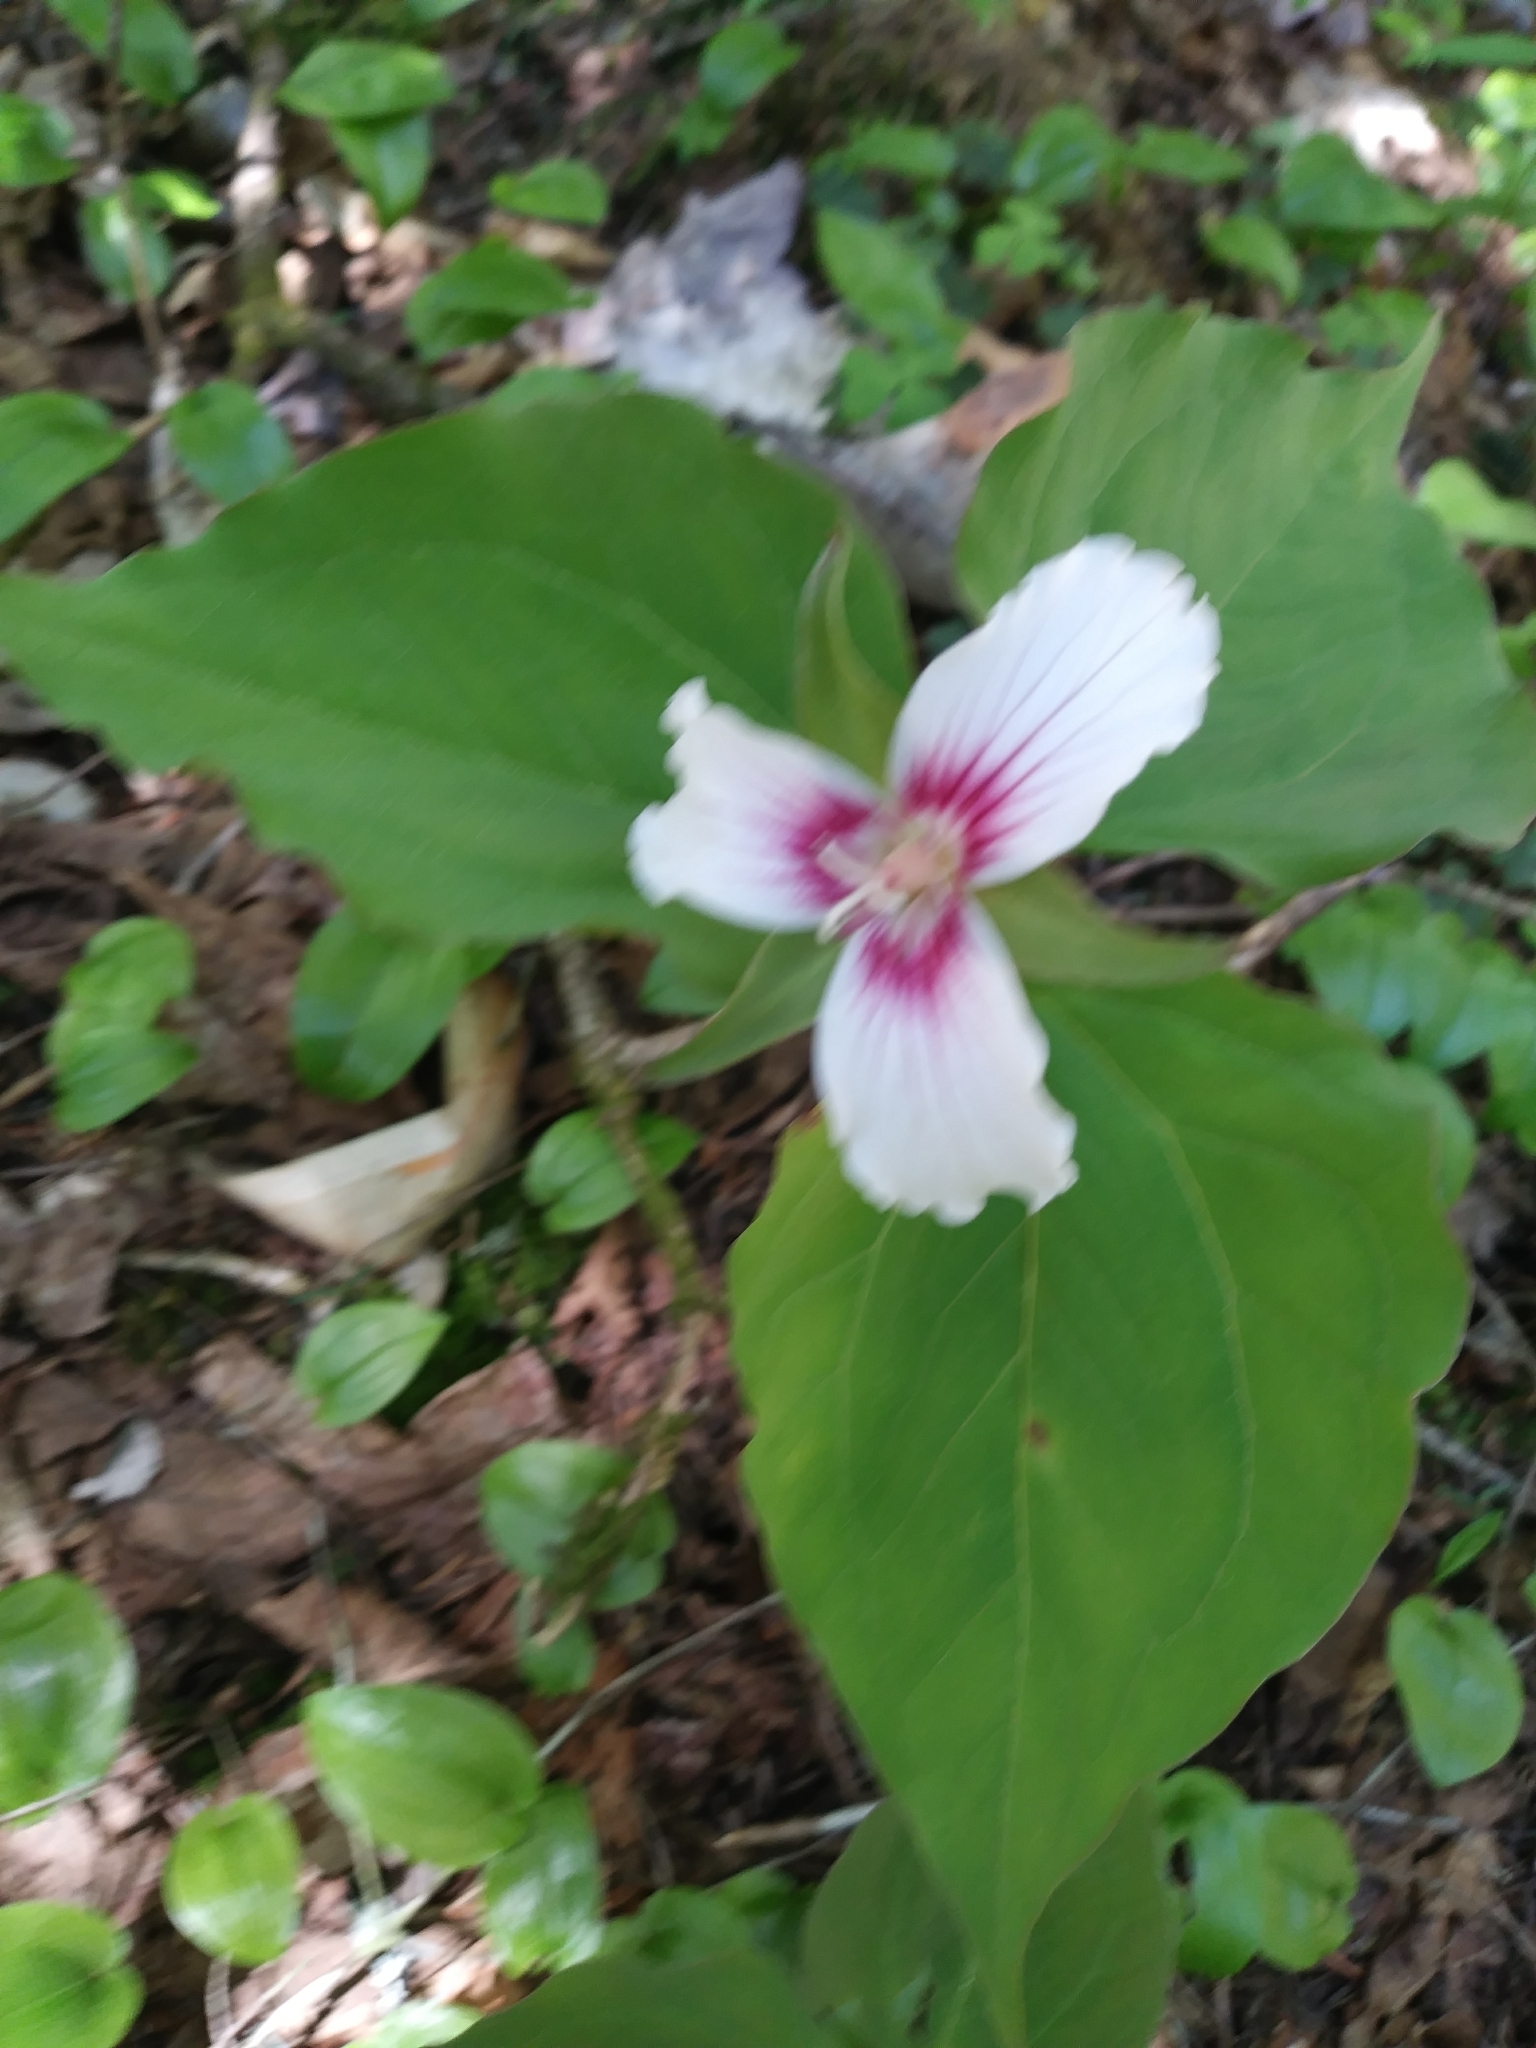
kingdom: Plantae
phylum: Tracheophyta
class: Liliopsida
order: Liliales
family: Melanthiaceae
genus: Trillium
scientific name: Trillium undulatum
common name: Paint trillium
